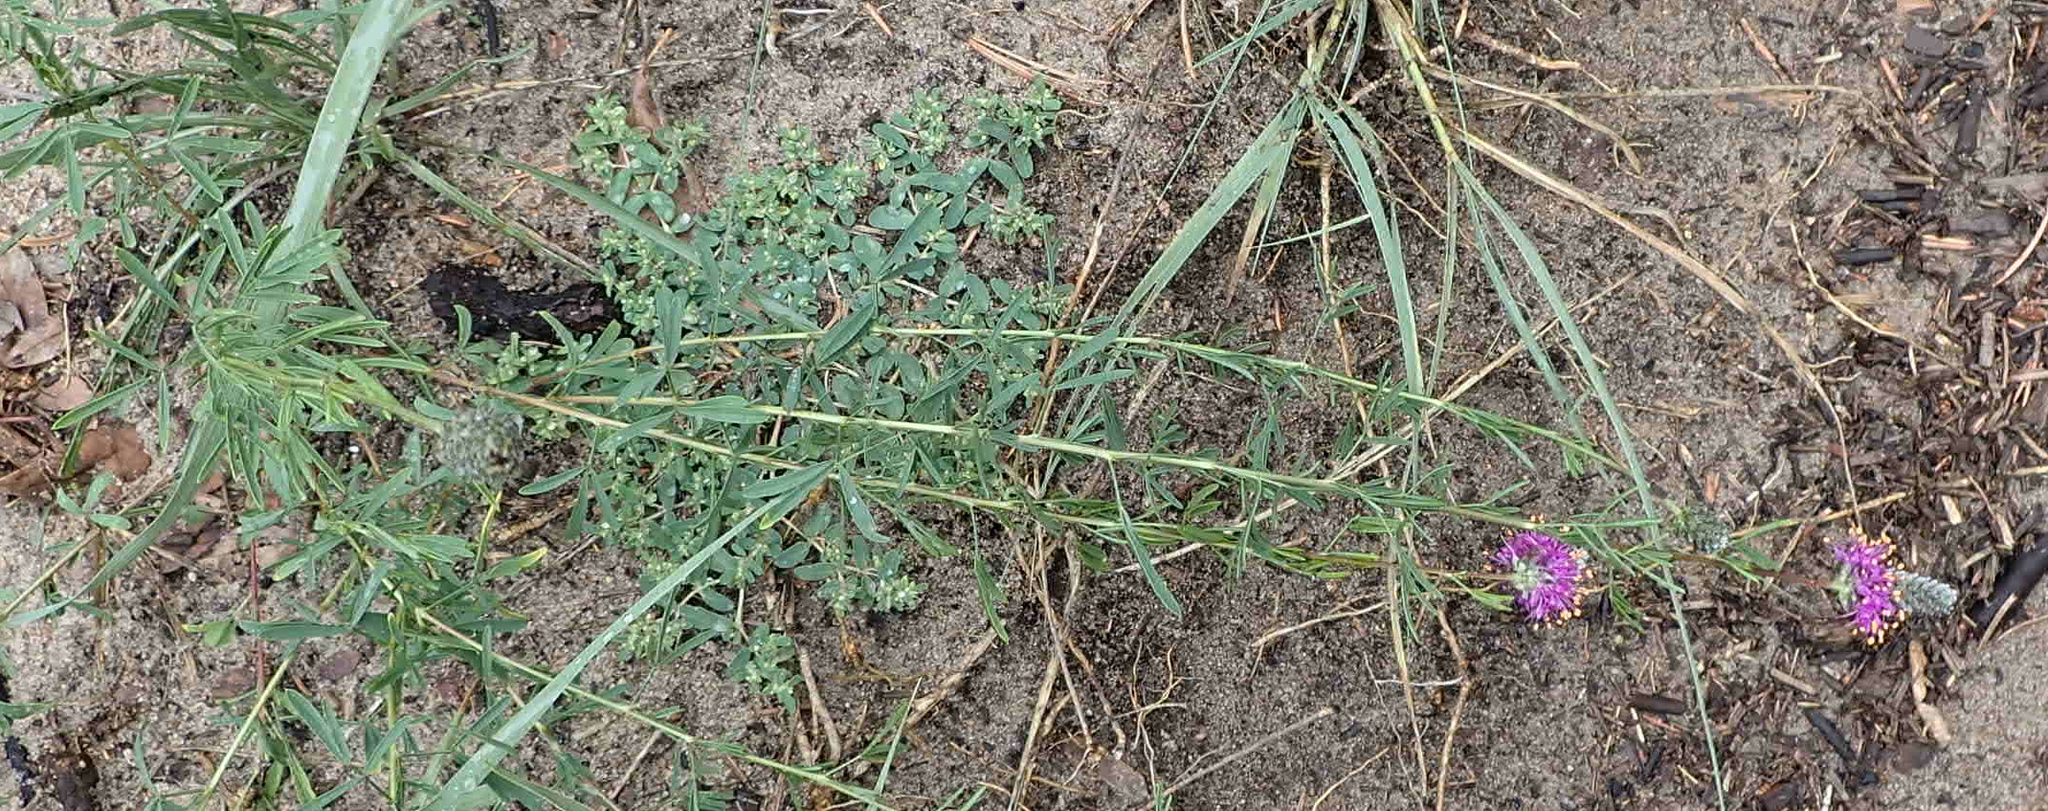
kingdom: Plantae
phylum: Tracheophyta
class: Magnoliopsida
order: Fabales
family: Fabaceae
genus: Dalea
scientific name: Dalea purpurea
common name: Purple prairie-clover
